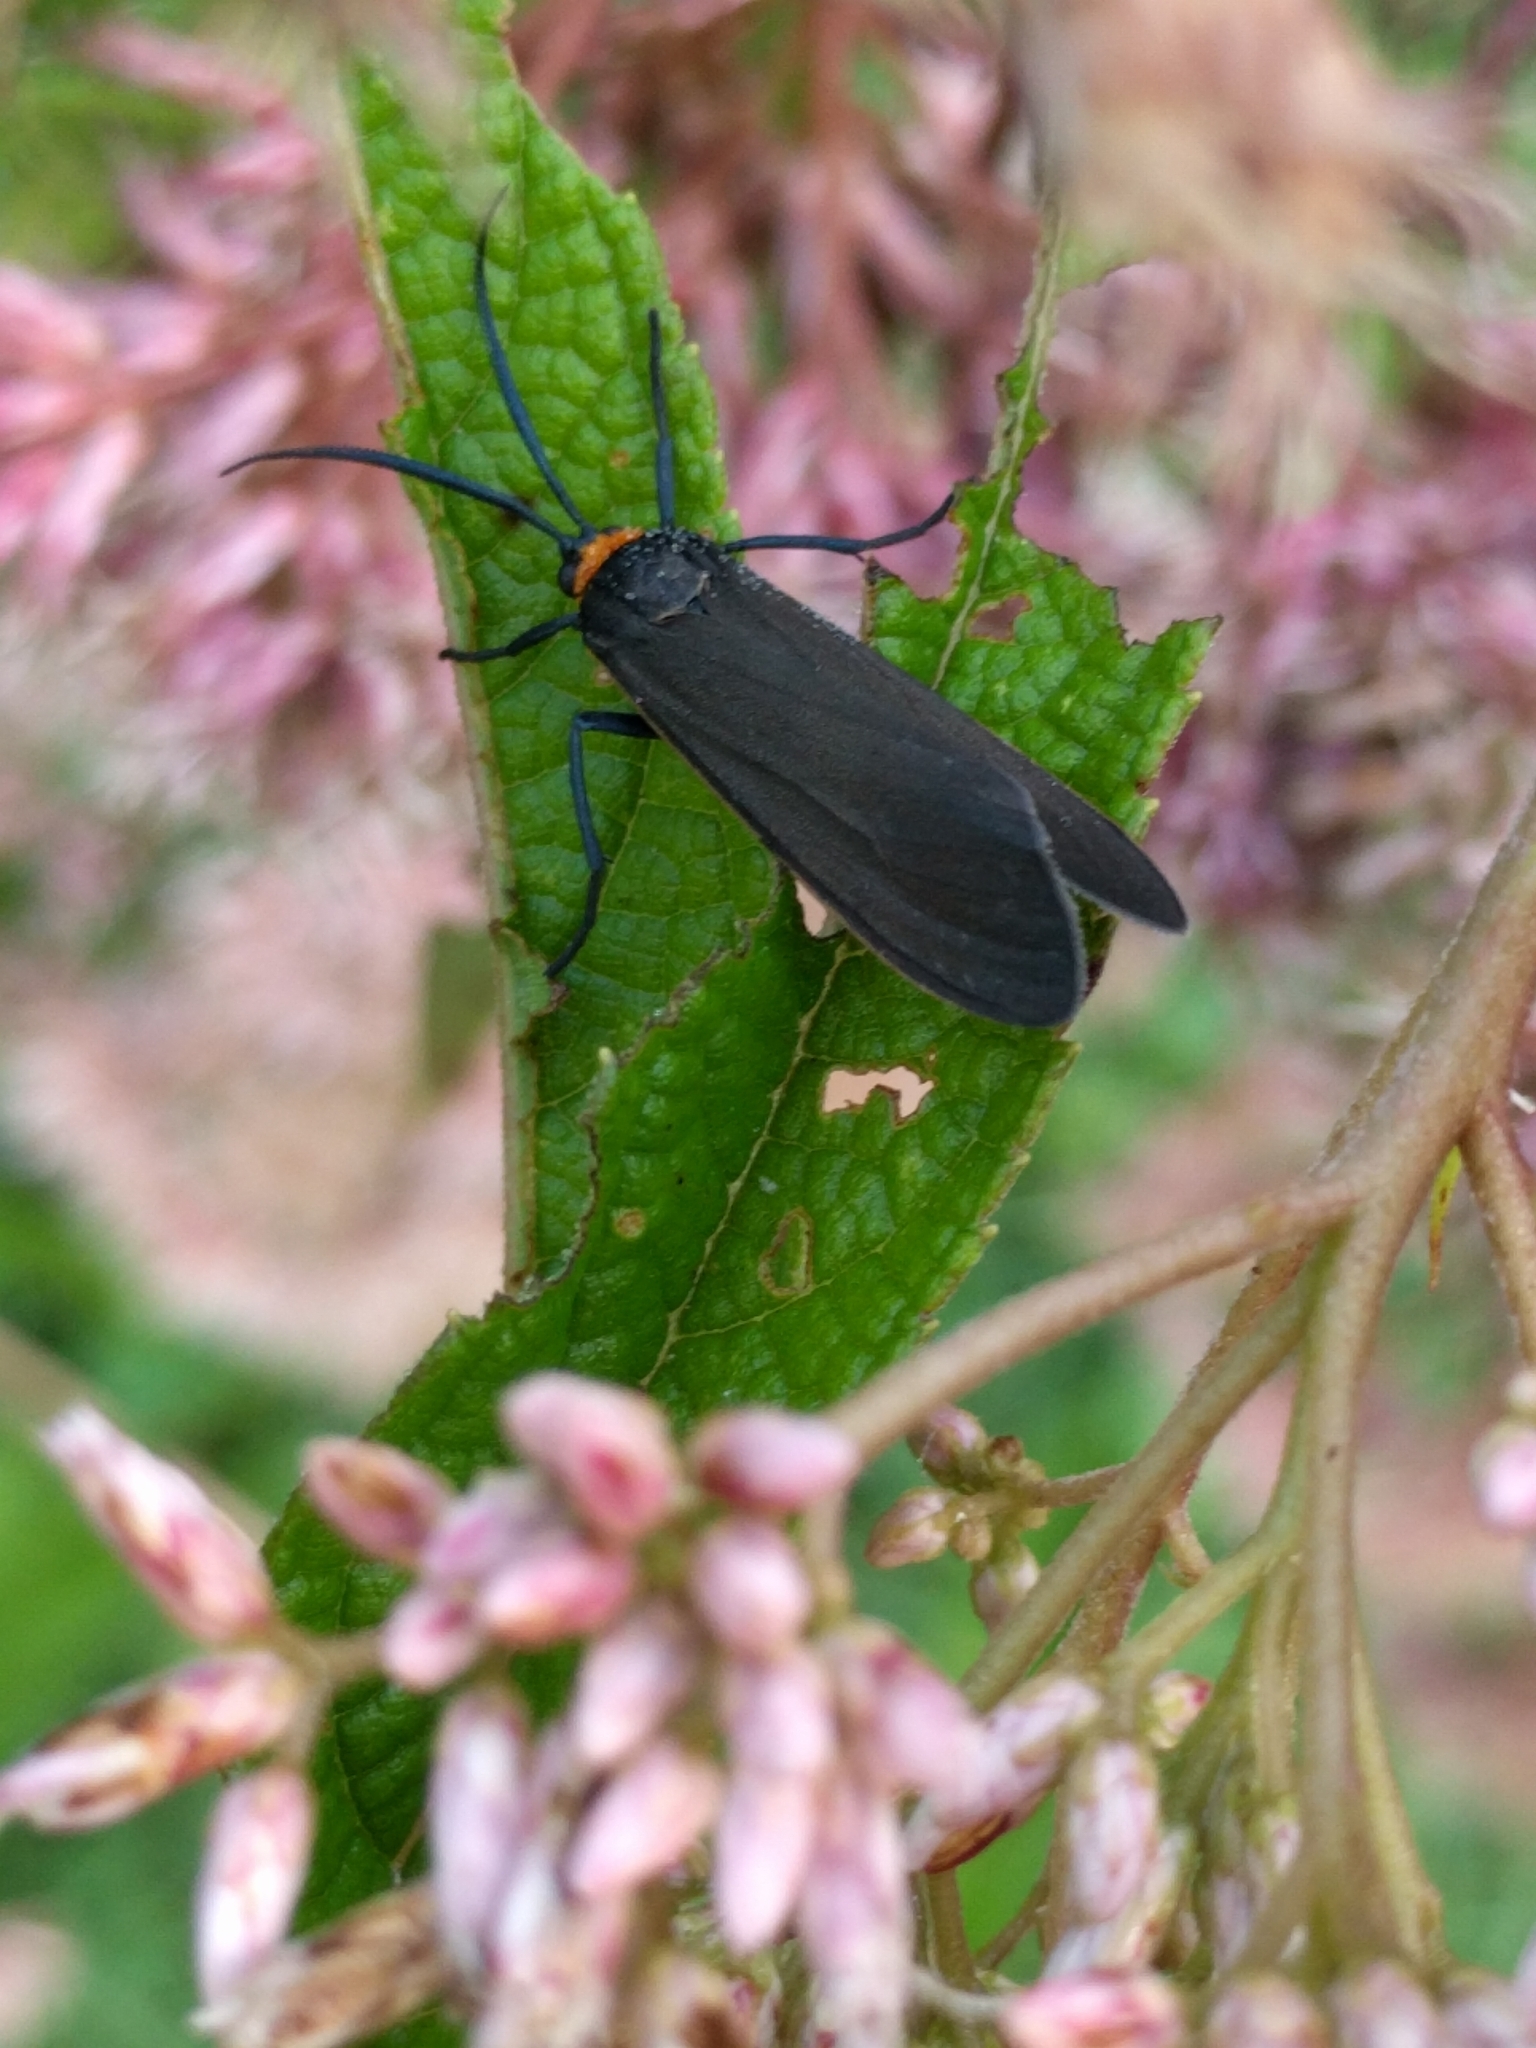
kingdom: Animalia
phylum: Arthropoda
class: Insecta
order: Lepidoptera
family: Erebidae
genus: Cisseps
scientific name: Cisseps fulvicollis
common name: Yellow-collared scape moth
